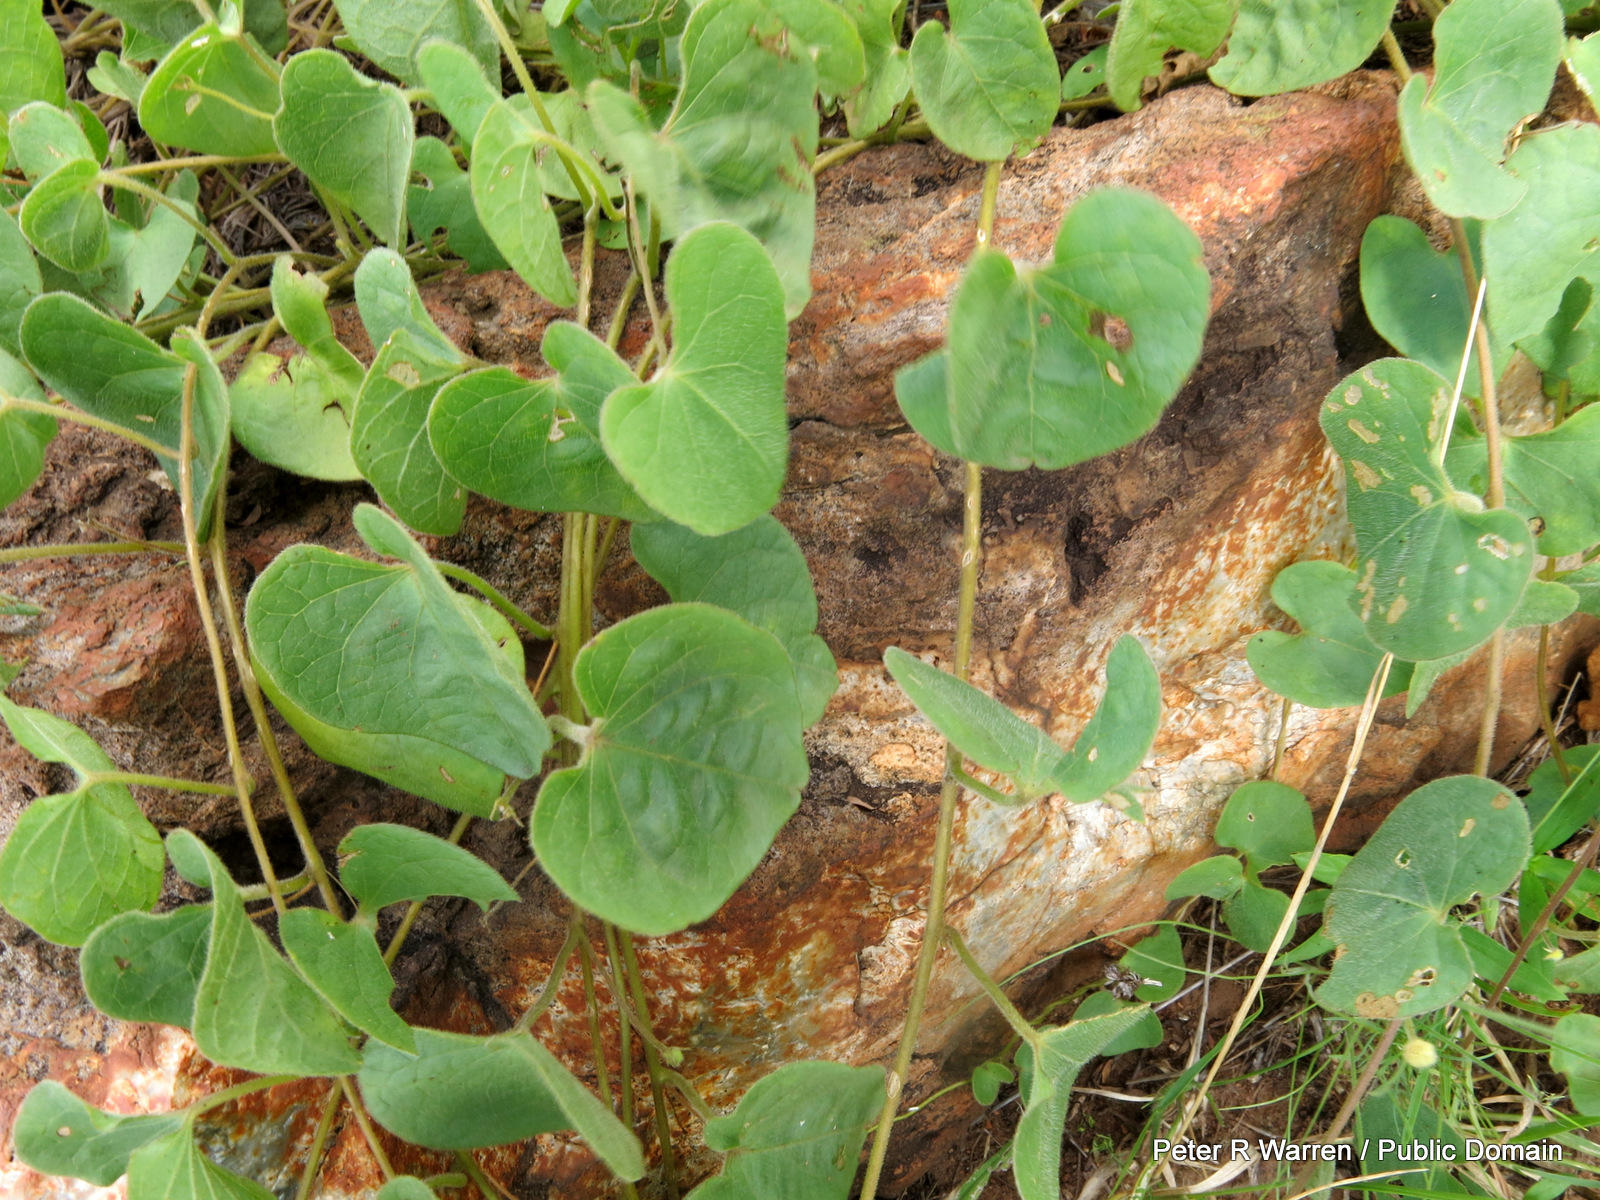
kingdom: Plantae
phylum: Tracheophyta
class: Magnoliopsida
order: Solanales
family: Convolvulaceae
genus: Ipomoea
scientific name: Ipomoea obscura
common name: Obscure morning-glory
